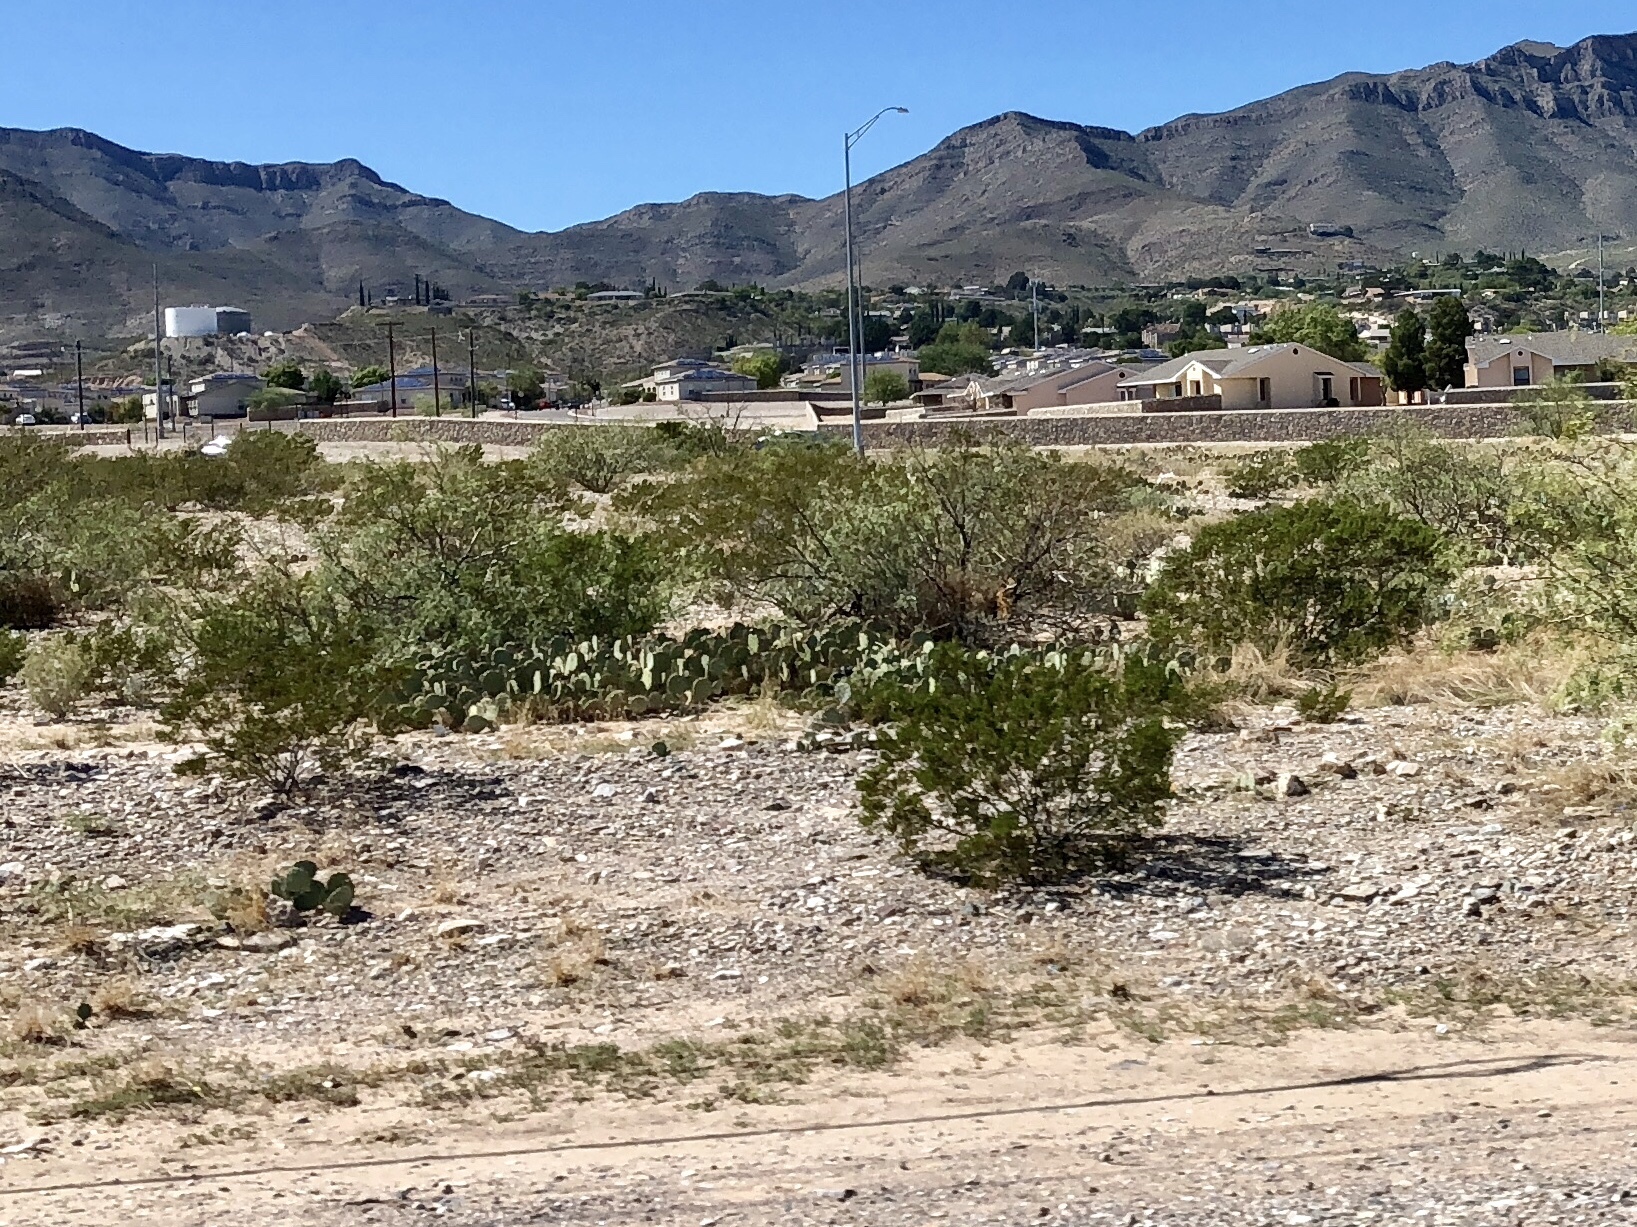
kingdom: Plantae
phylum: Tracheophyta
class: Magnoliopsida
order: Zygophyllales
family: Zygophyllaceae
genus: Larrea
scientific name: Larrea tridentata
